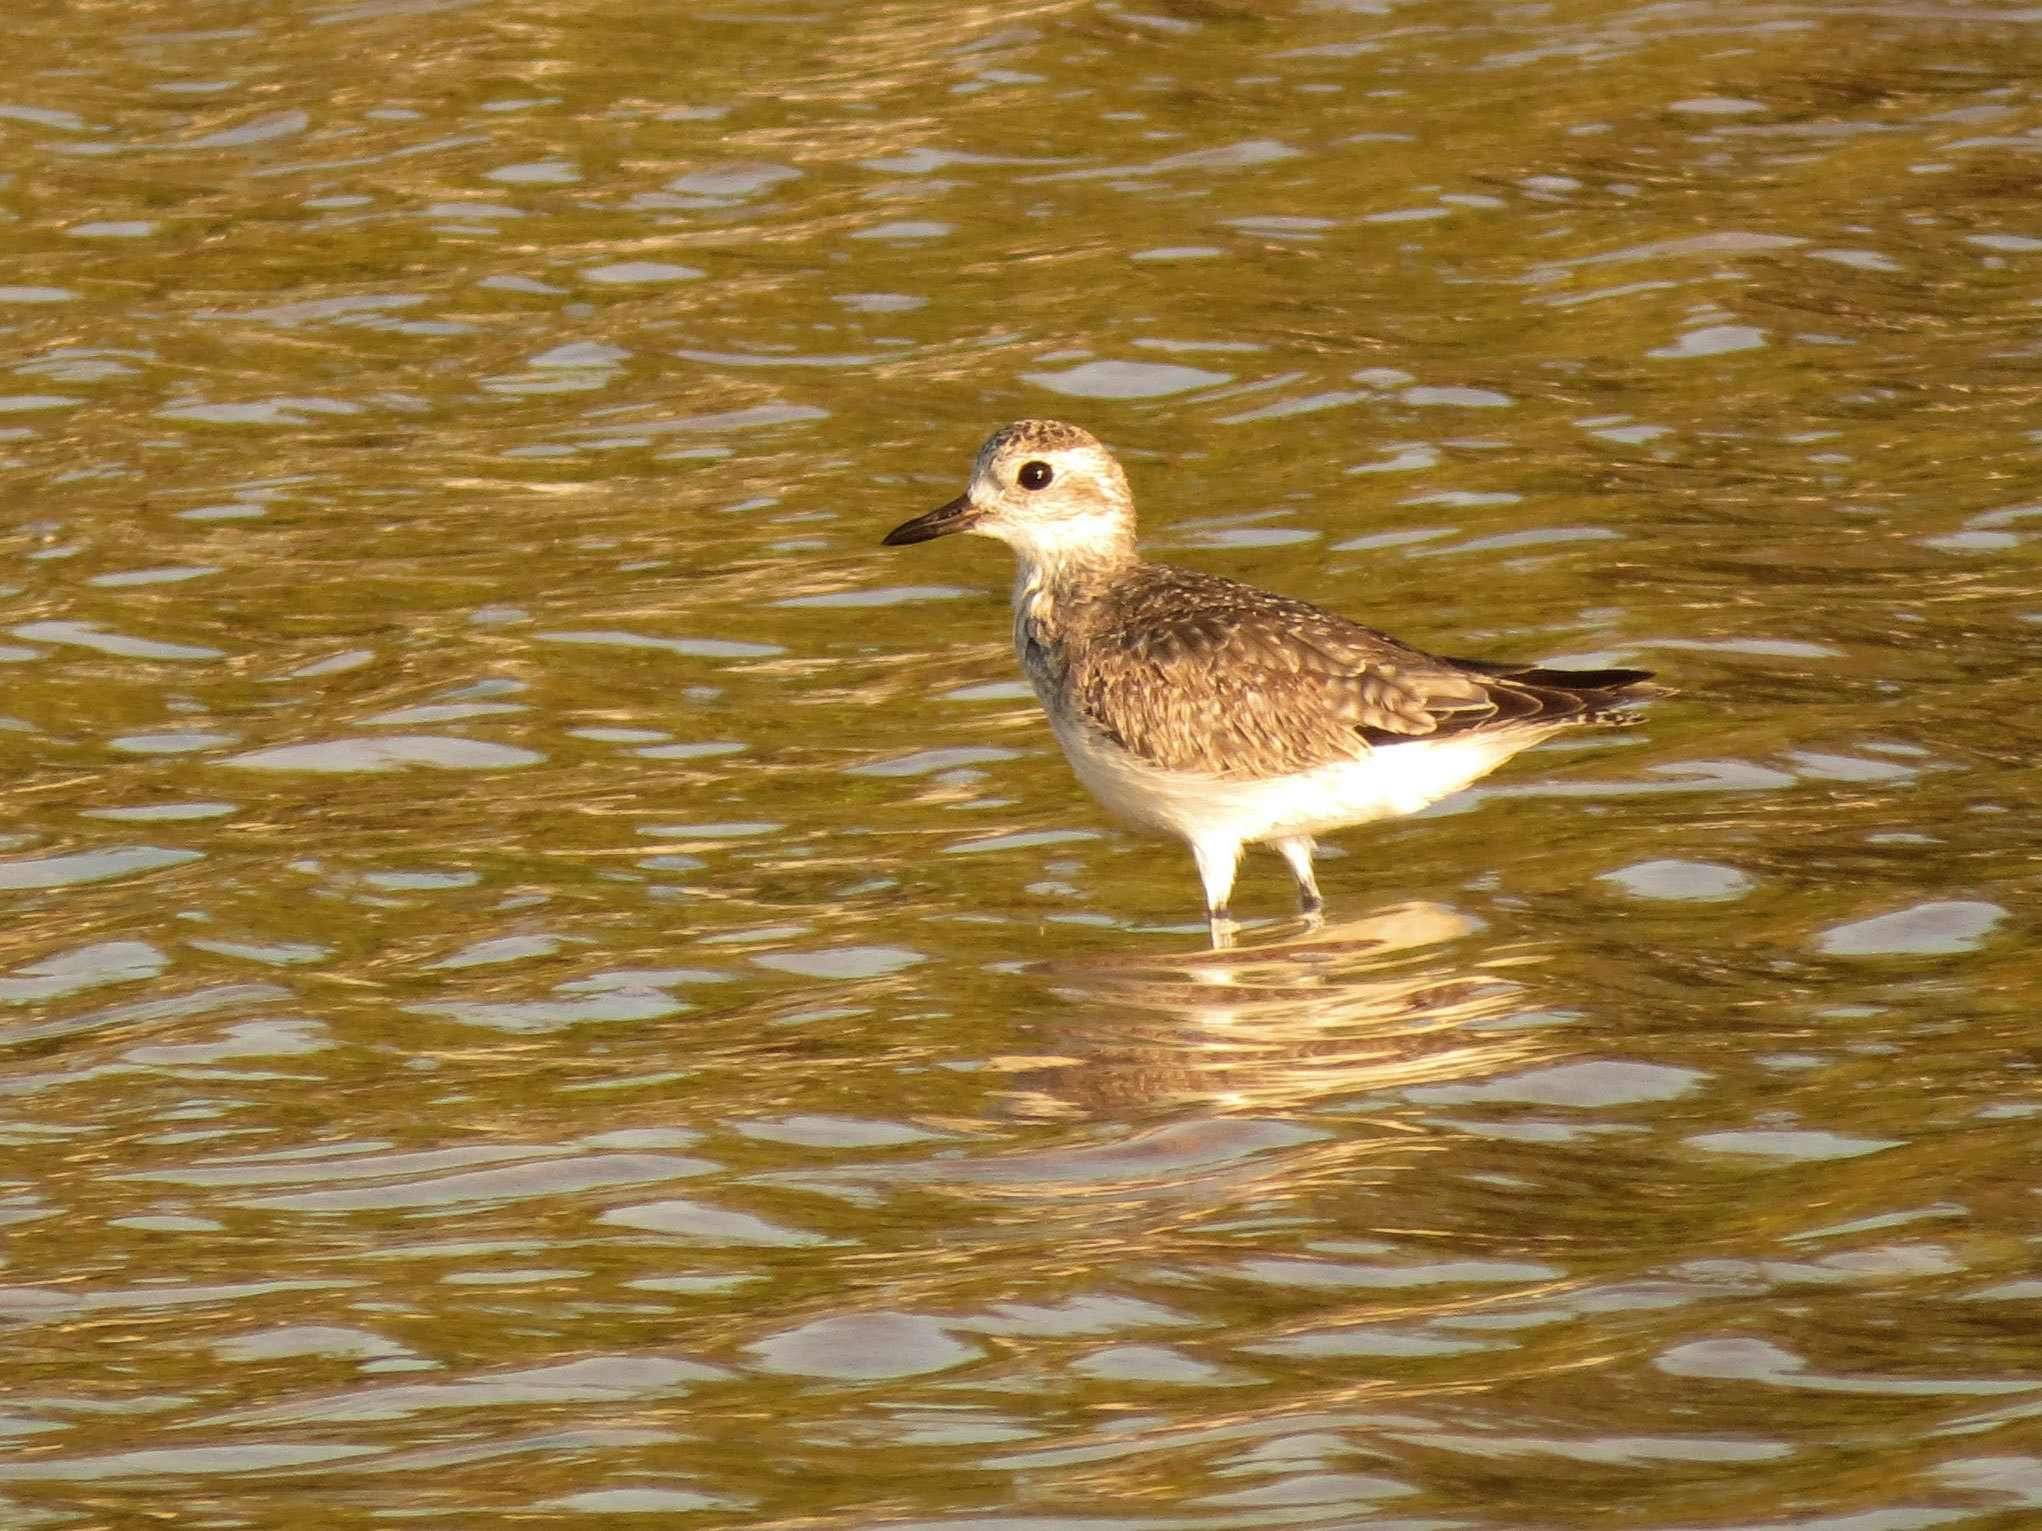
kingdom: Animalia
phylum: Chordata
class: Aves
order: Charadriiformes
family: Charadriidae
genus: Pluvialis
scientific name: Pluvialis squatarola
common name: Grey plover
